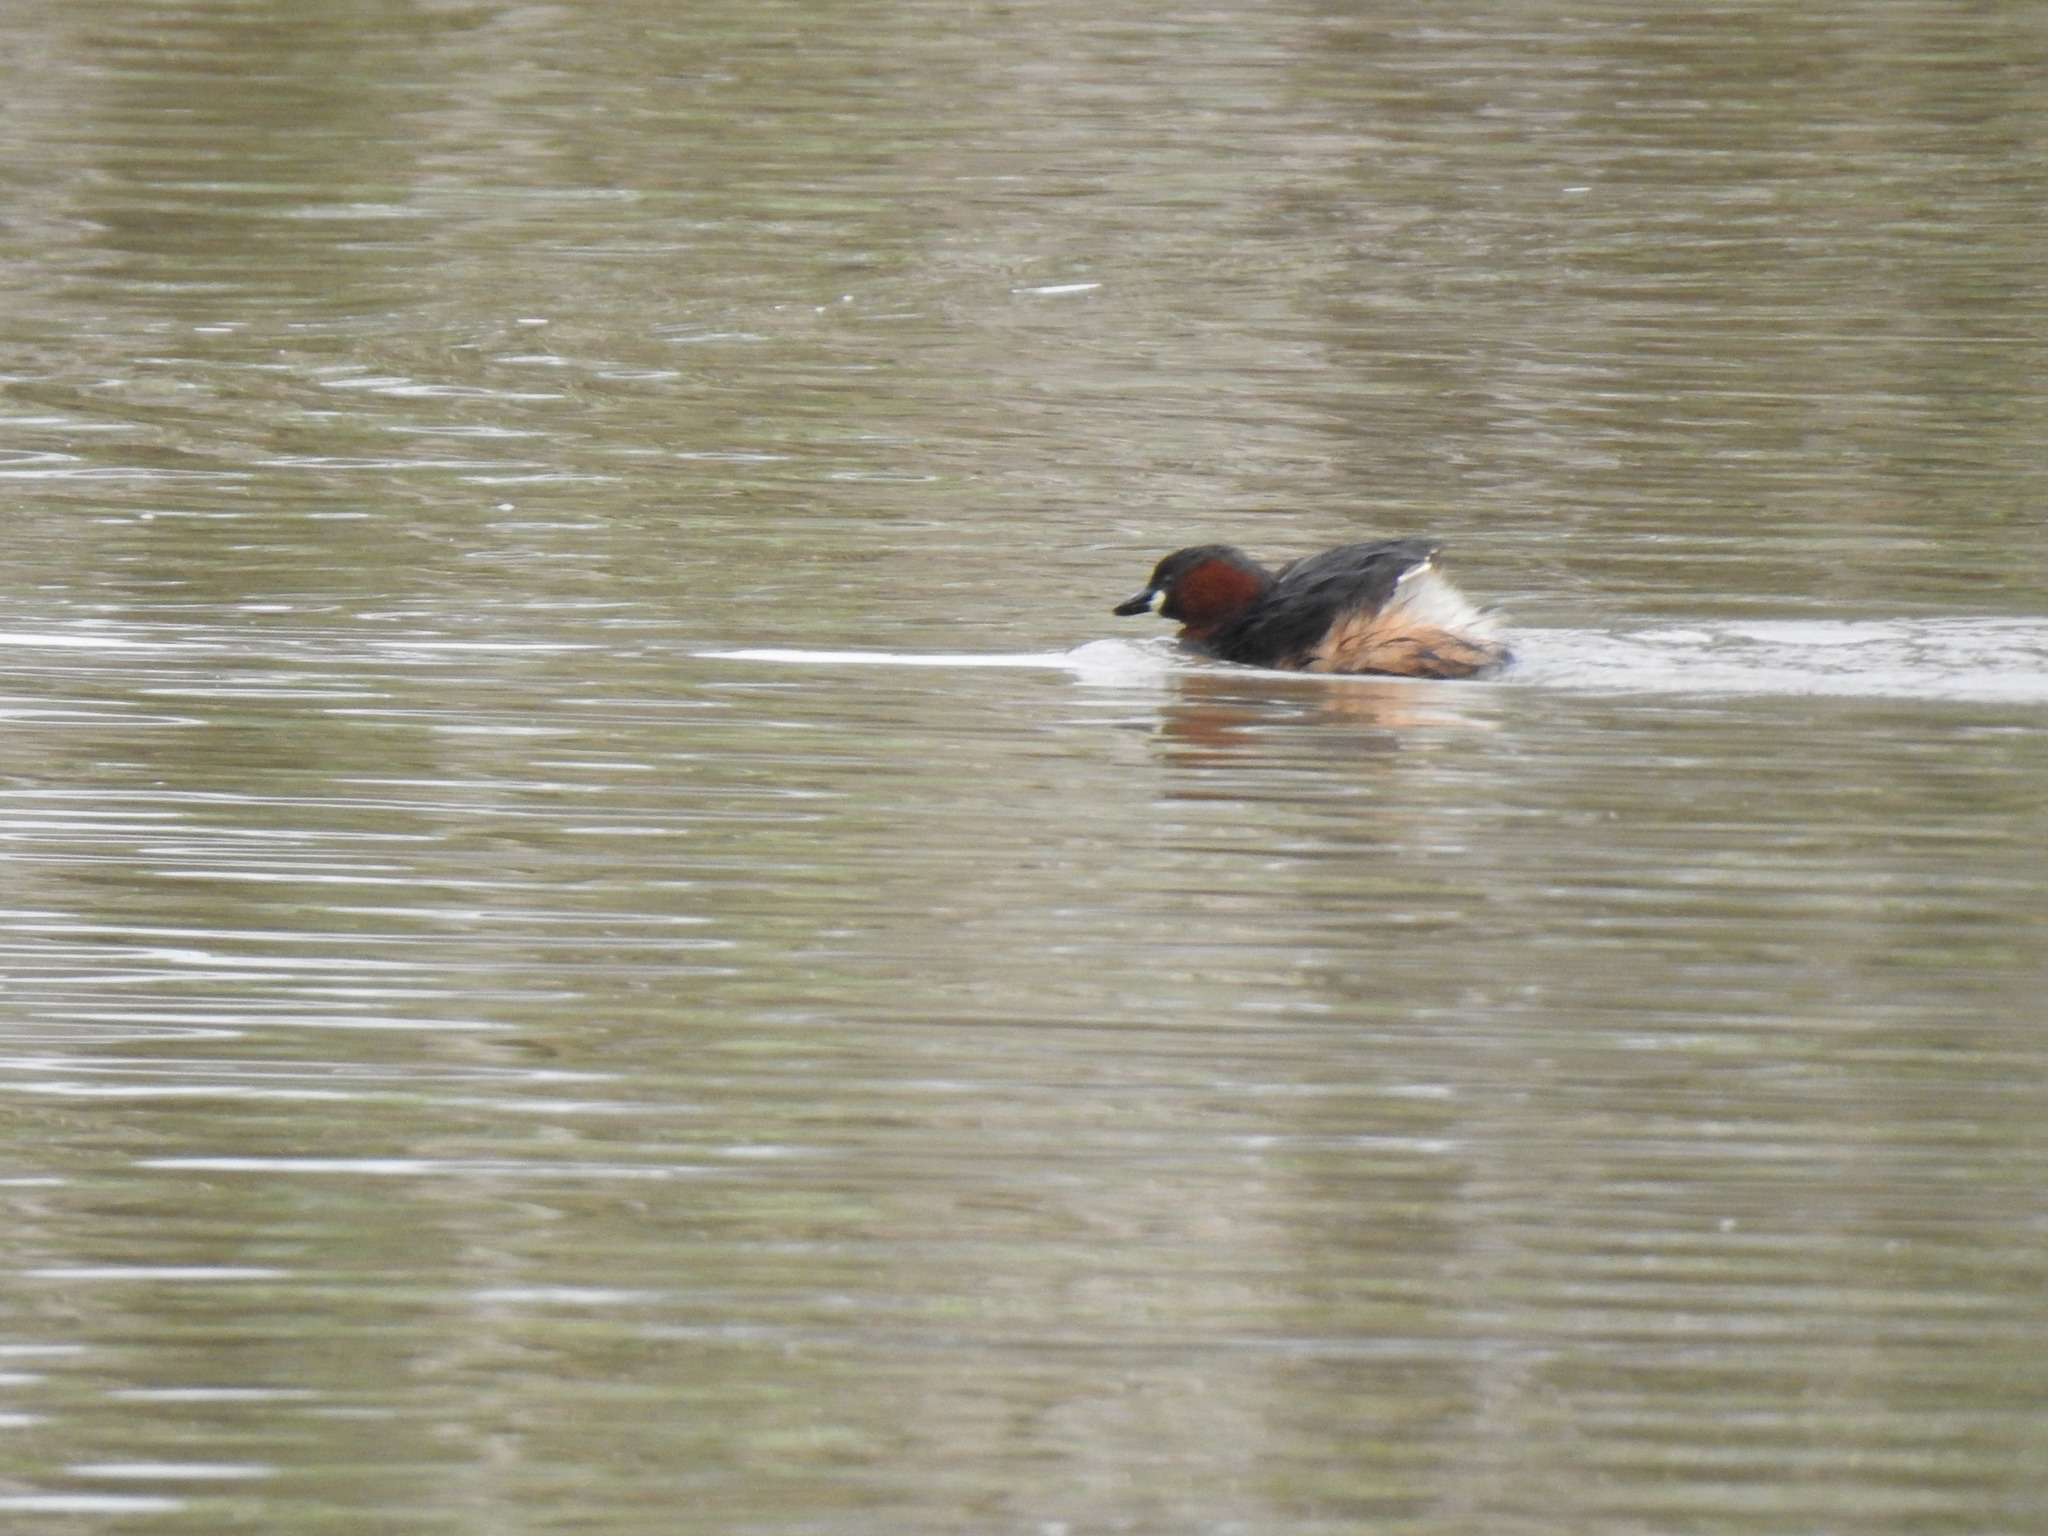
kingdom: Animalia
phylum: Chordata
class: Aves
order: Podicipediformes
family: Podicipedidae
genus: Tachybaptus
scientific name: Tachybaptus ruficollis
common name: Little grebe
